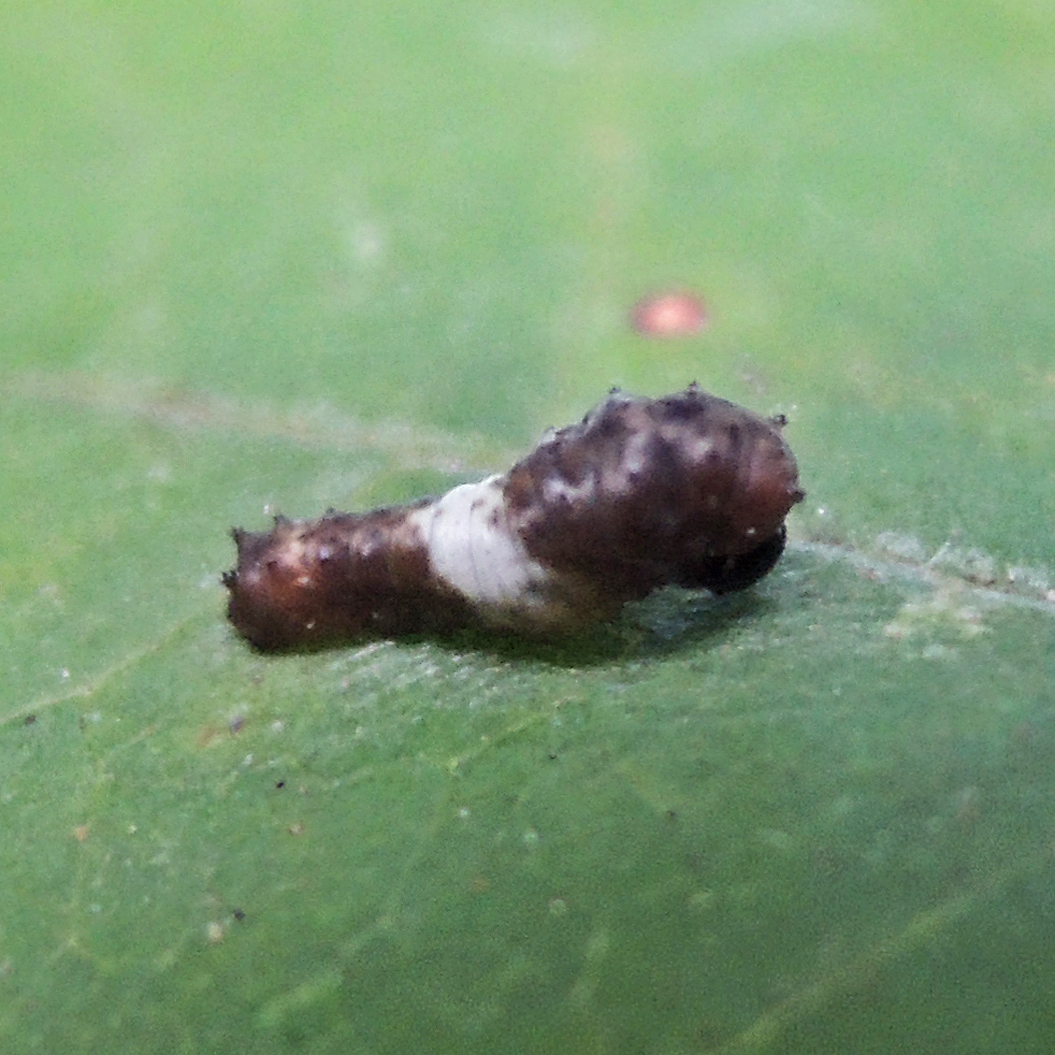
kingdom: Animalia
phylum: Arthropoda
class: Insecta
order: Lepidoptera
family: Papilionidae
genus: Papilio
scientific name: Papilio glaucus
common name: Tiger swallowtail
